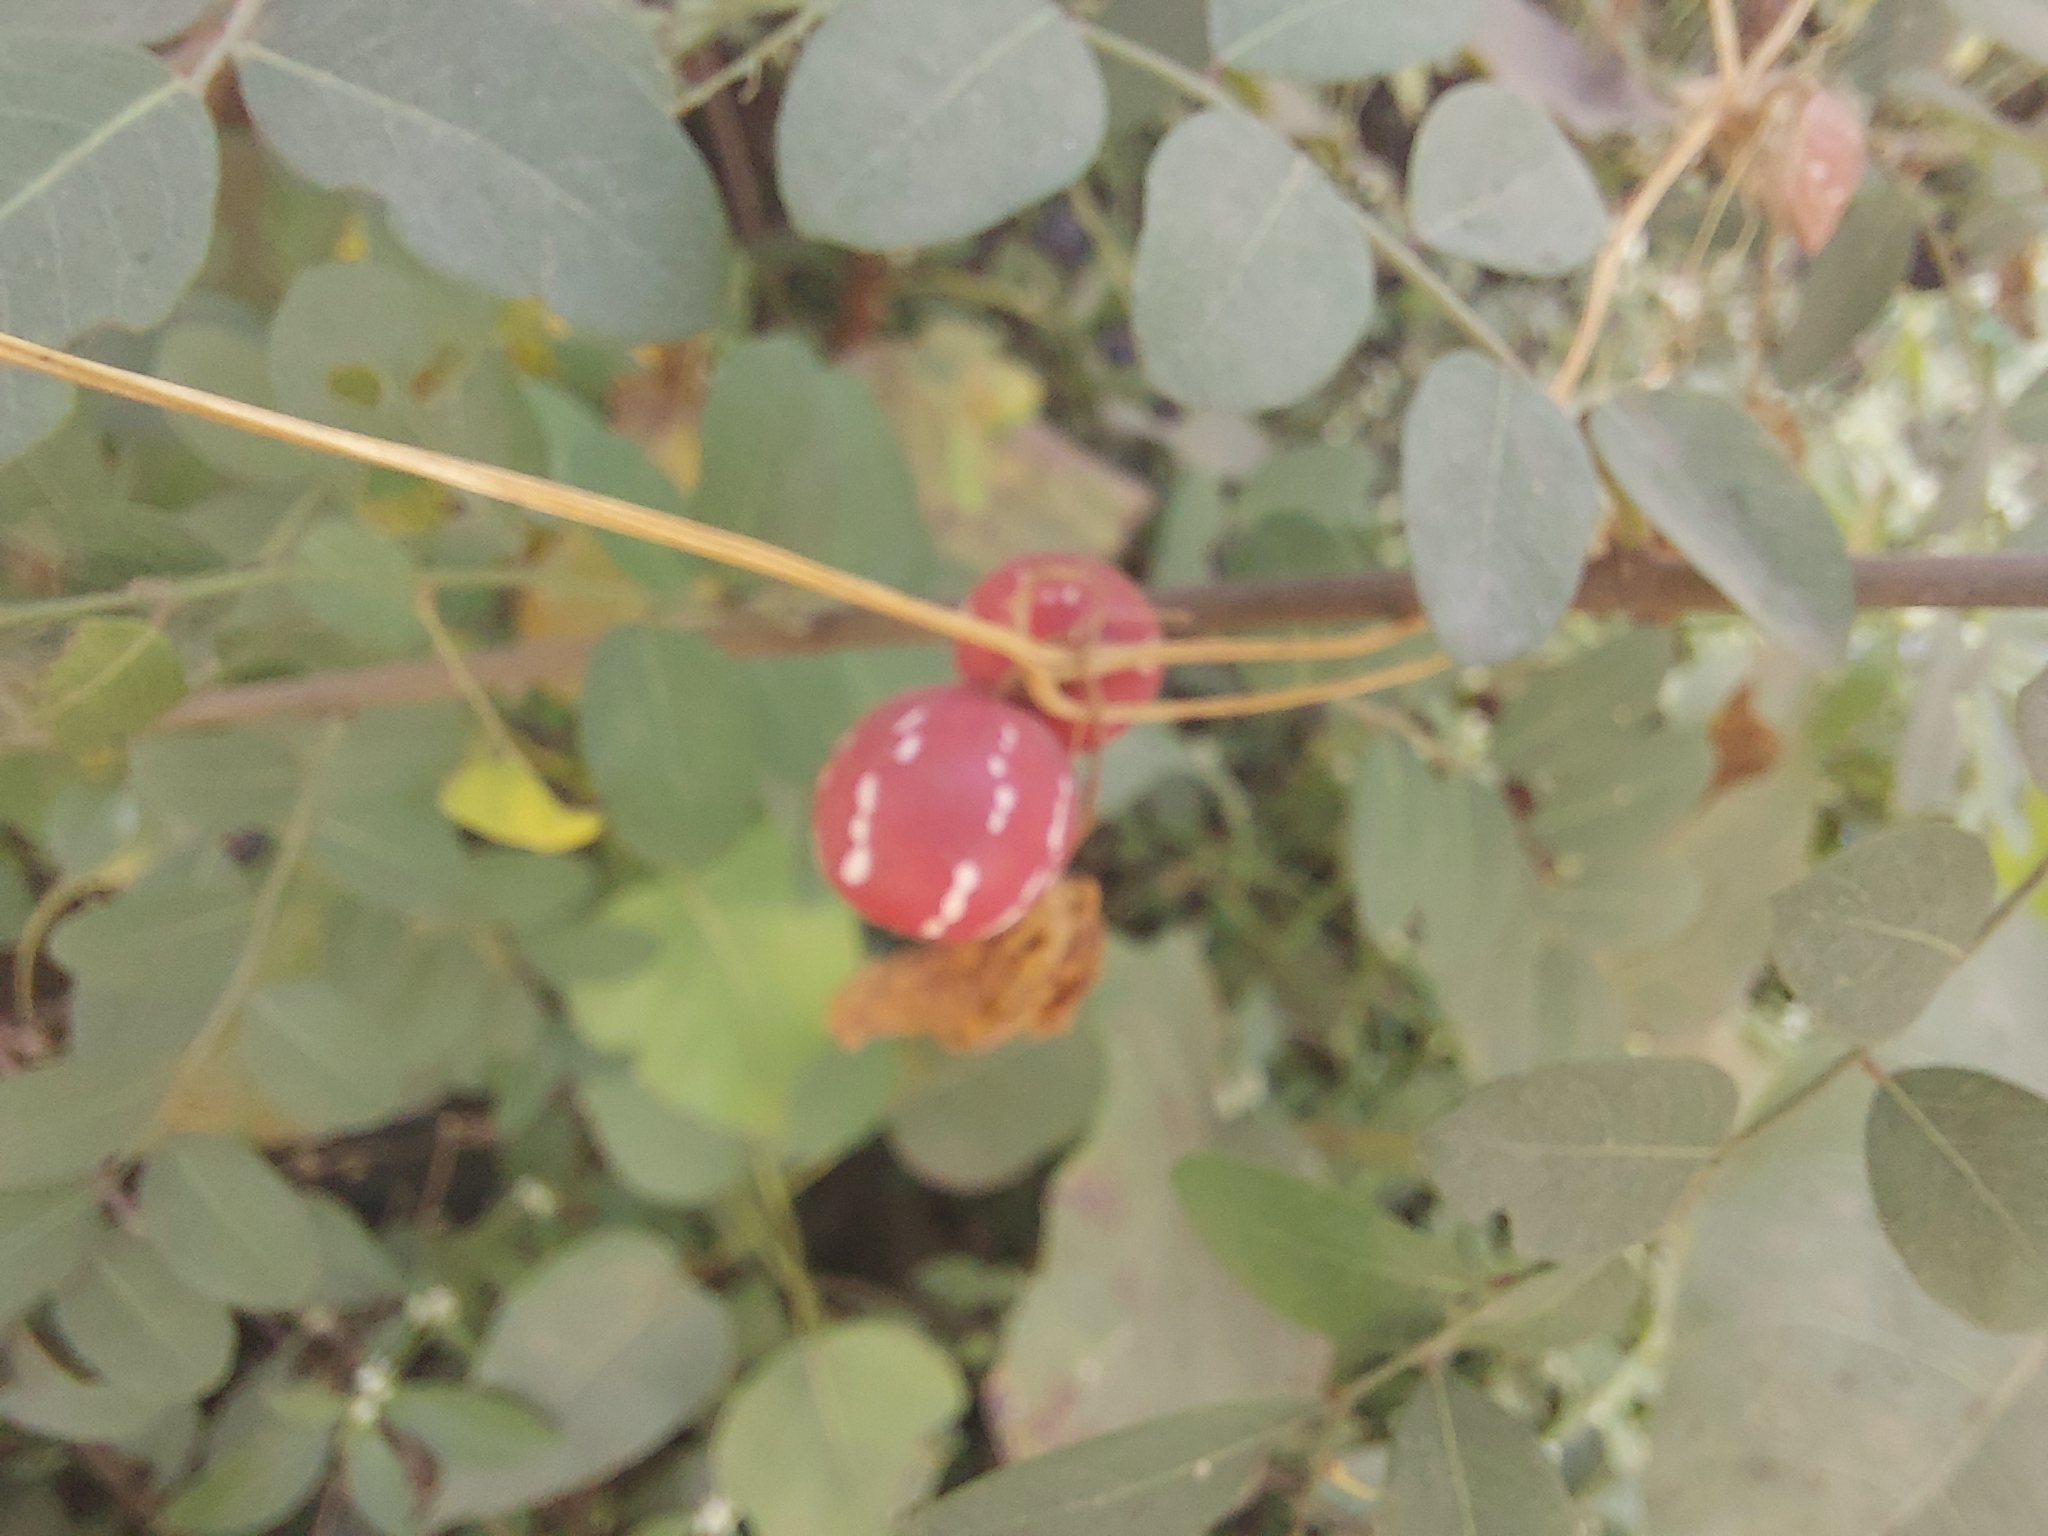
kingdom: Plantae
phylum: Tracheophyta
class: Magnoliopsida
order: Cucurbitales
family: Cucurbitaceae
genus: Diplocyclos
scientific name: Diplocyclos palmatus
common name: Striped-cucumber
